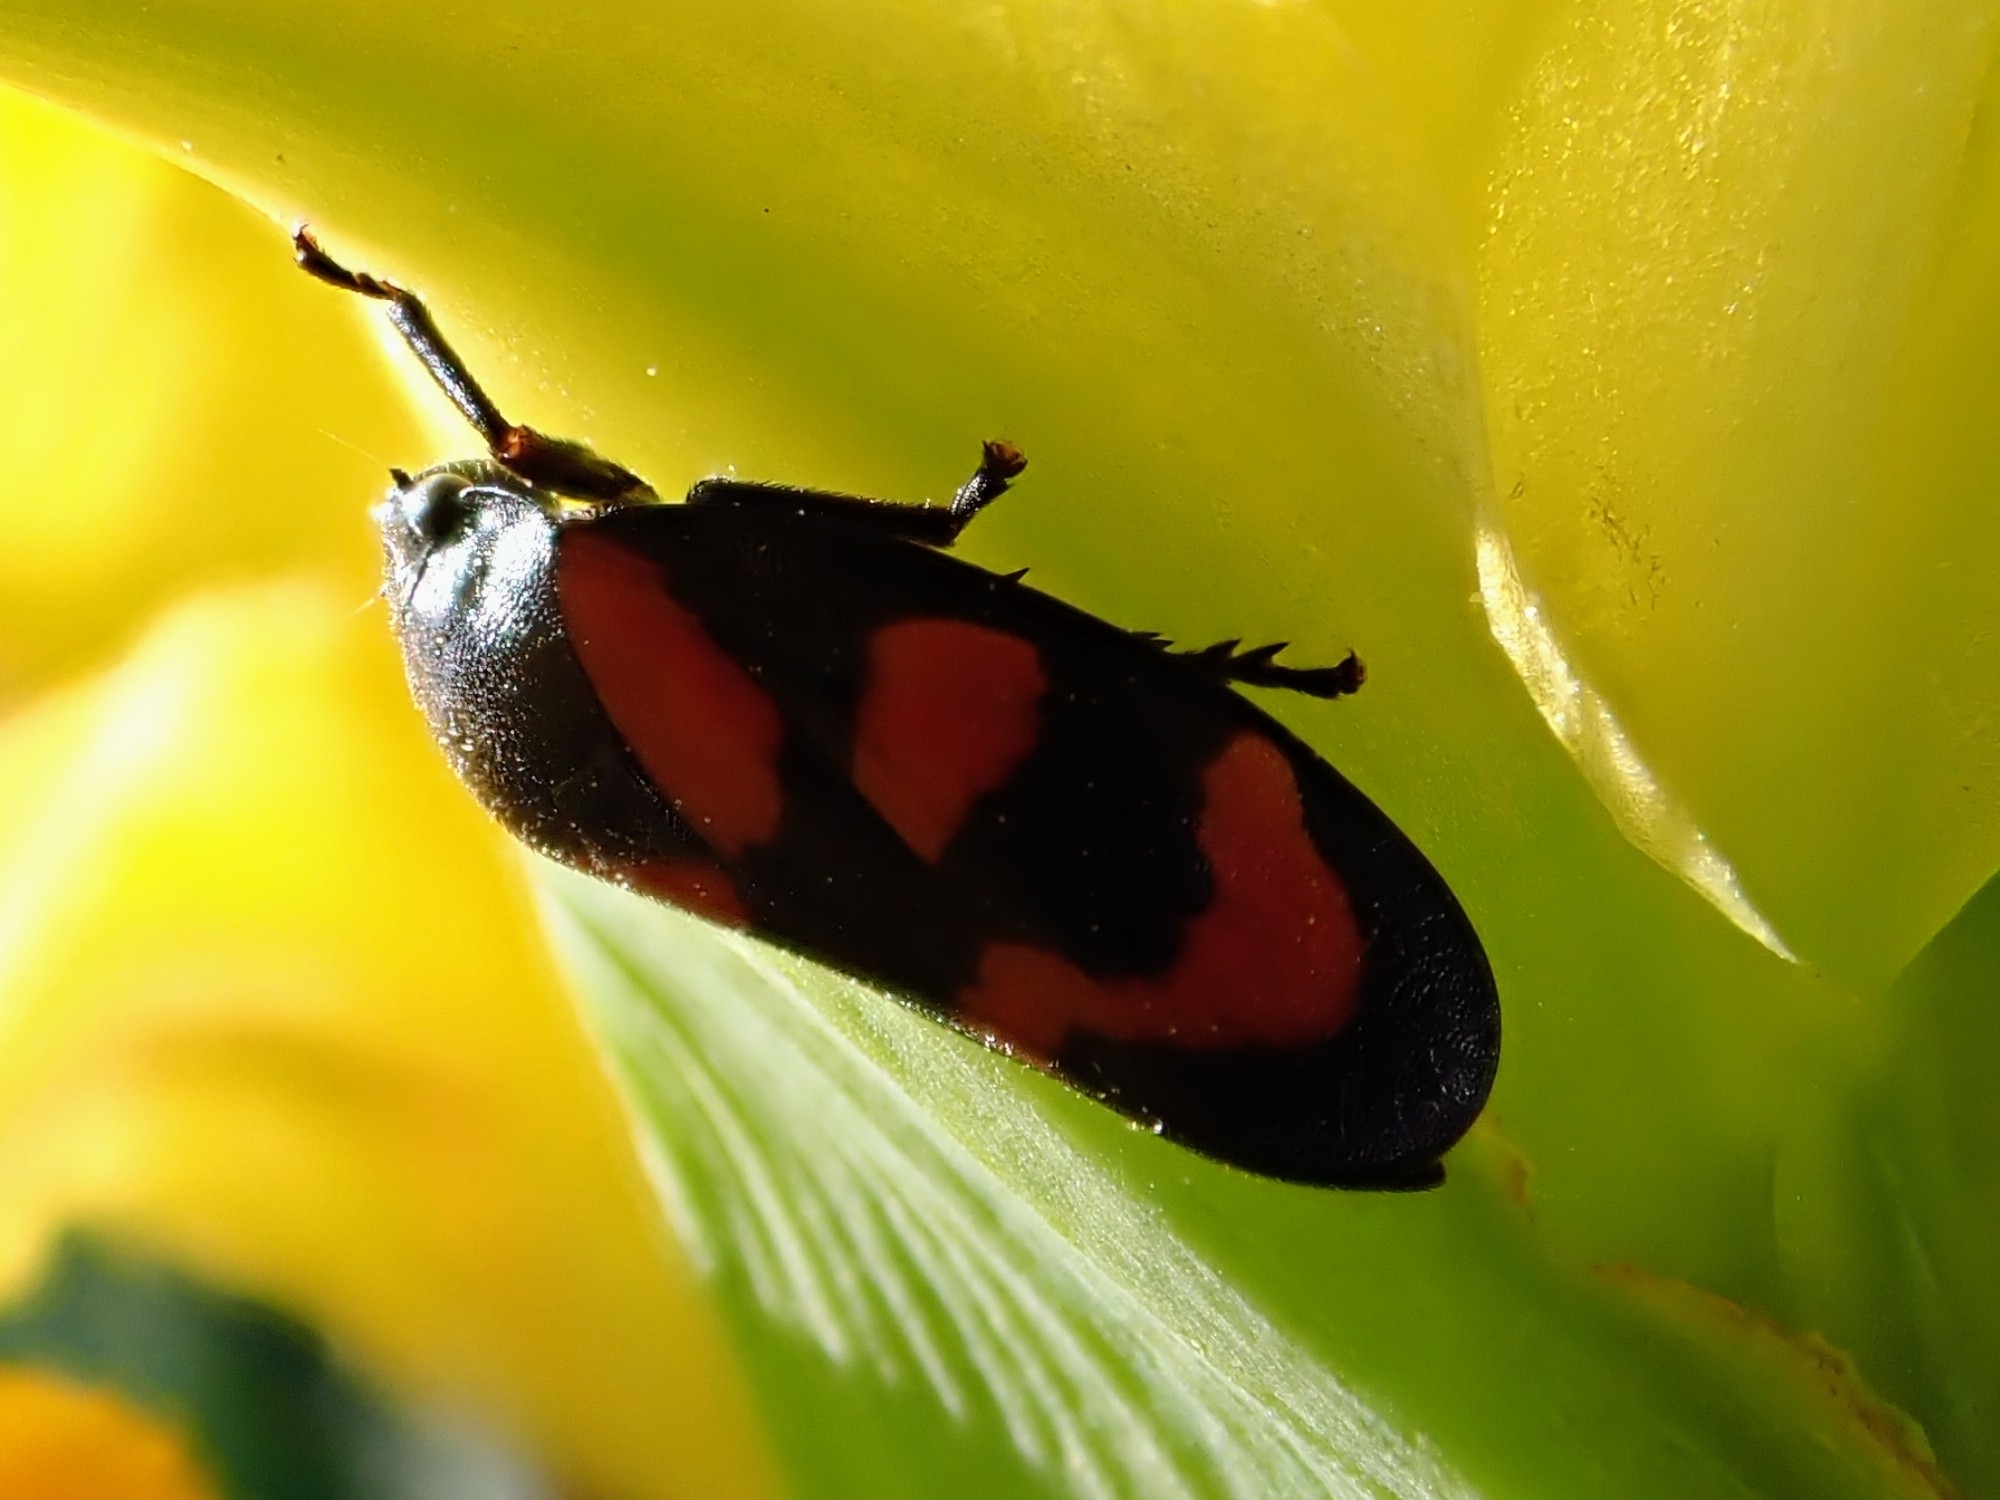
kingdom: Animalia
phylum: Arthropoda
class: Insecta
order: Hemiptera
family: Cercopidae
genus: Cercopis
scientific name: Cercopis vulnerata
